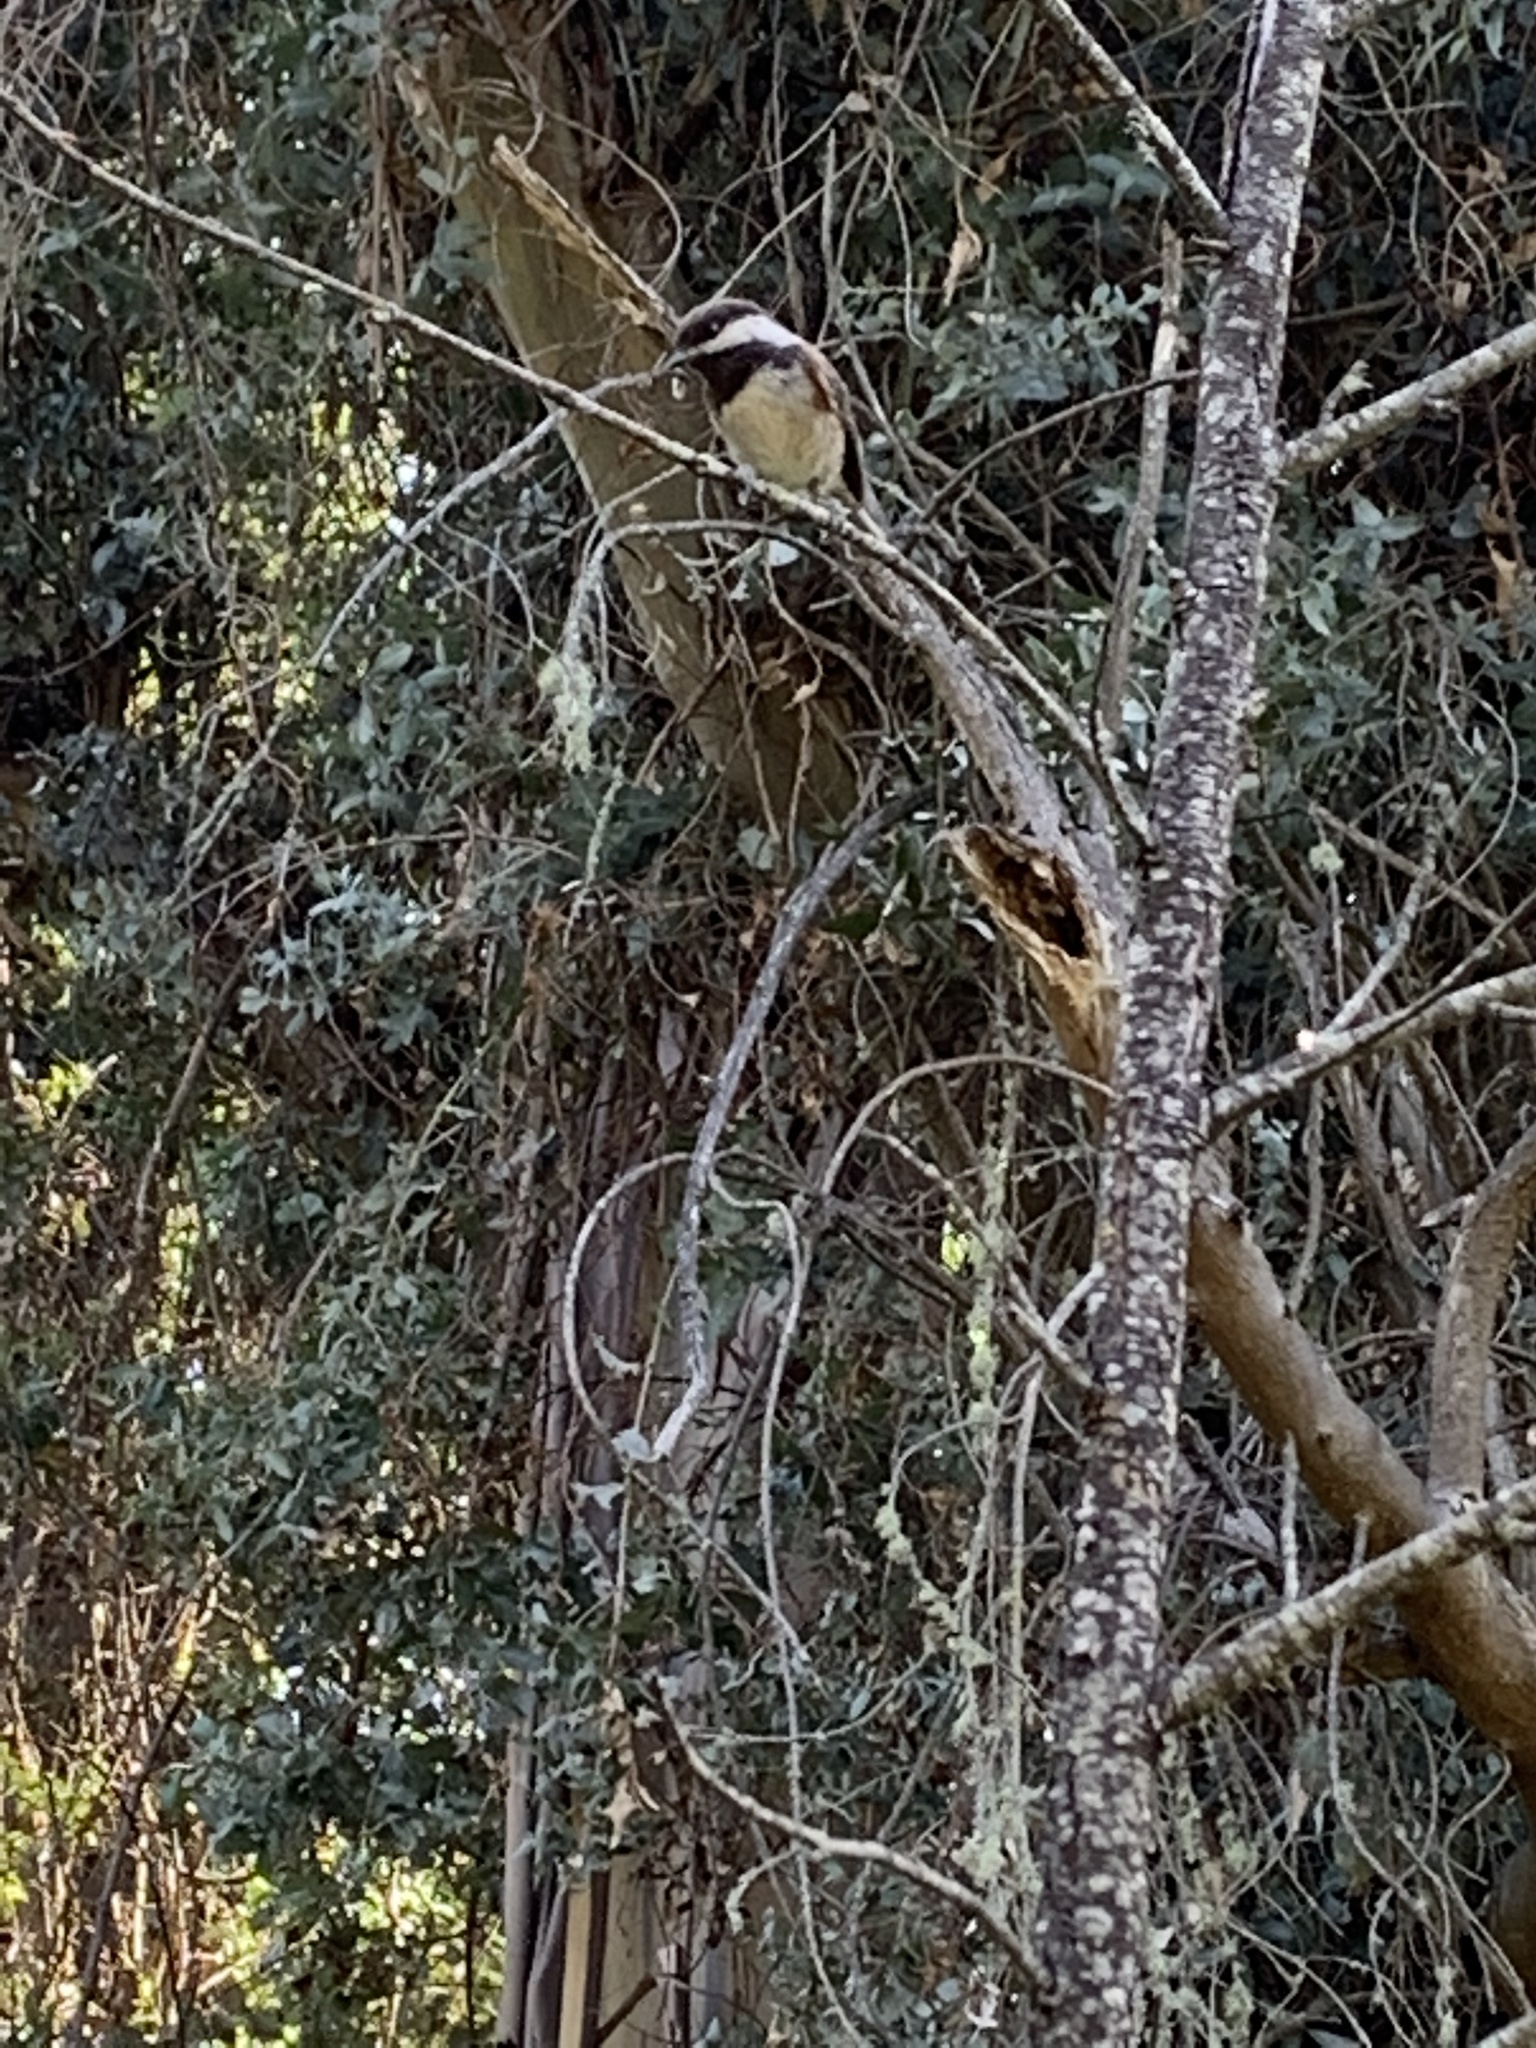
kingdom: Animalia
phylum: Chordata
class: Aves
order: Passeriformes
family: Paridae
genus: Poecile
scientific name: Poecile rufescens
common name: Chestnut-backed chickadee
